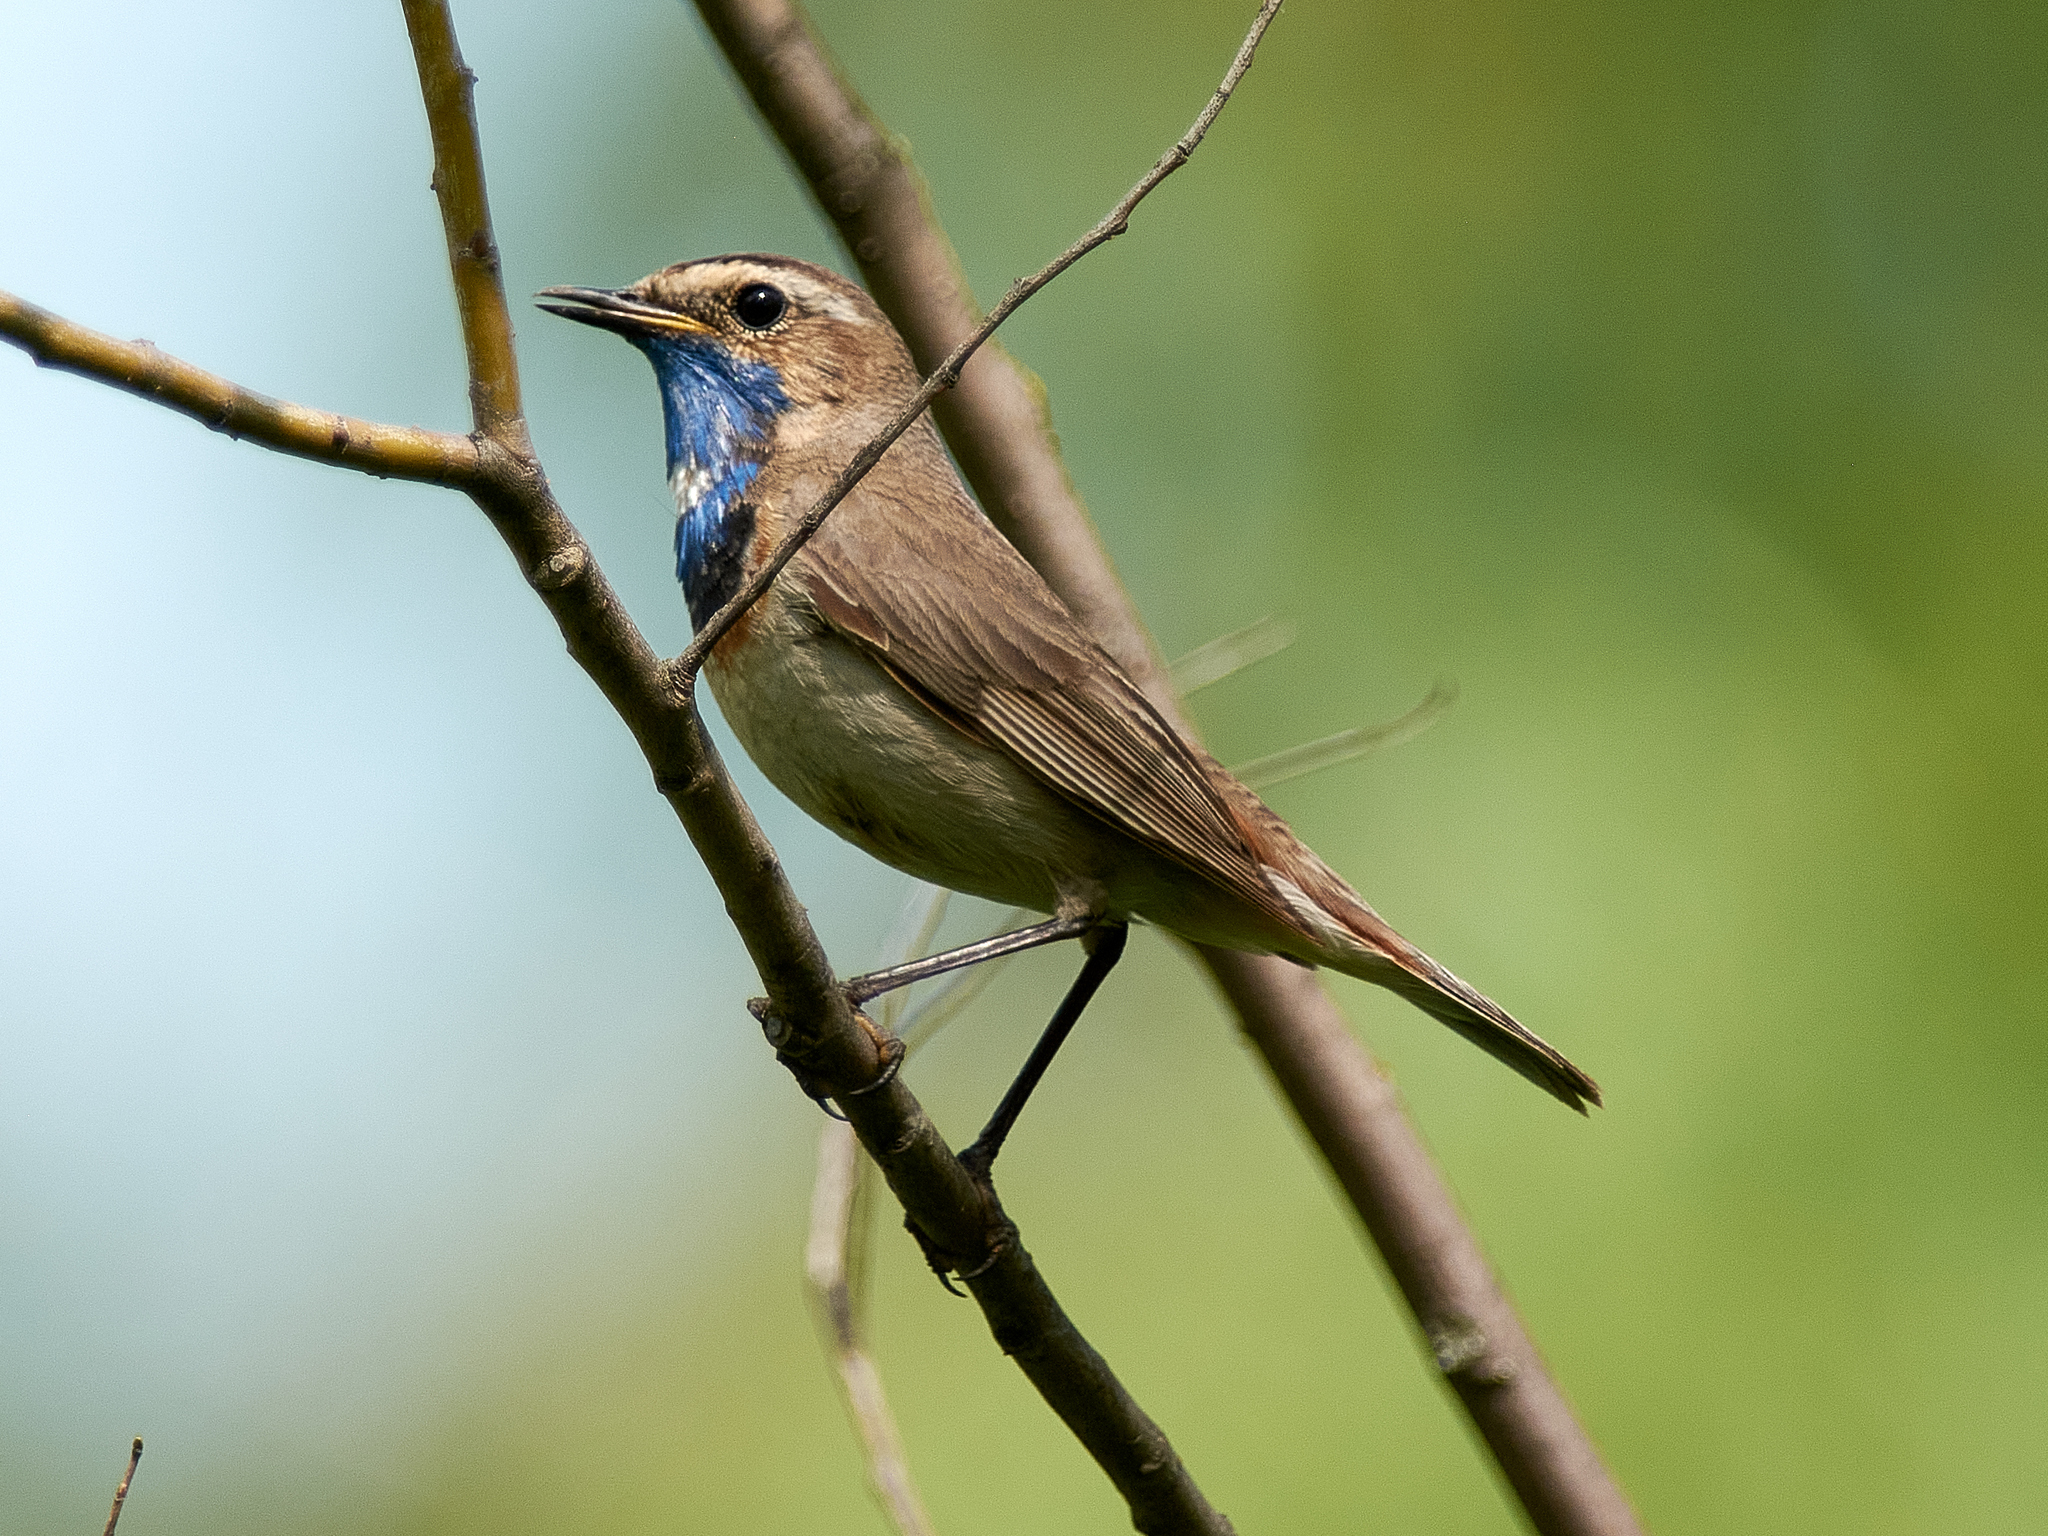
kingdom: Animalia
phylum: Chordata
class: Aves
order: Passeriformes
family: Muscicapidae
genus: Luscinia
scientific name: Luscinia svecica
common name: Bluethroat
